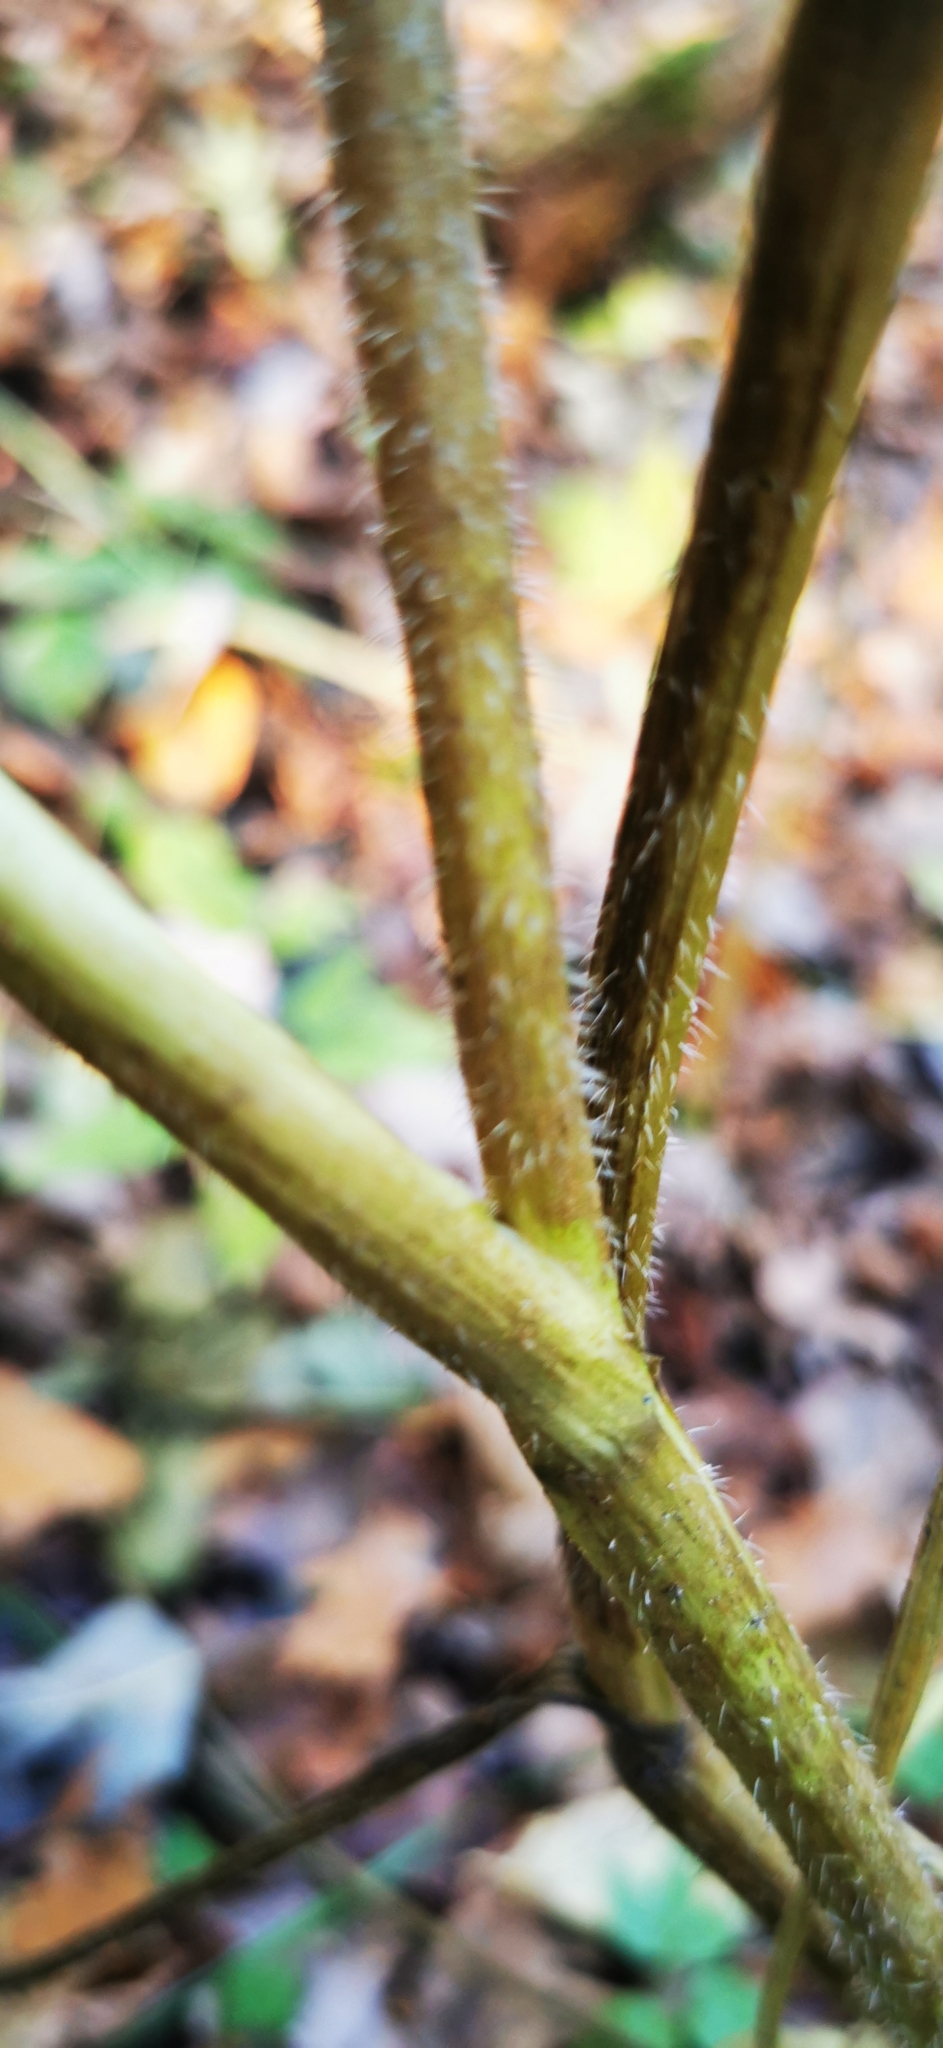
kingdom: Plantae
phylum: Tracheophyta
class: Magnoliopsida
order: Apiales
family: Apiaceae
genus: Chaerophyllum
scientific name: Chaerophyllum aromaticum
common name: Broadleaf chervil
